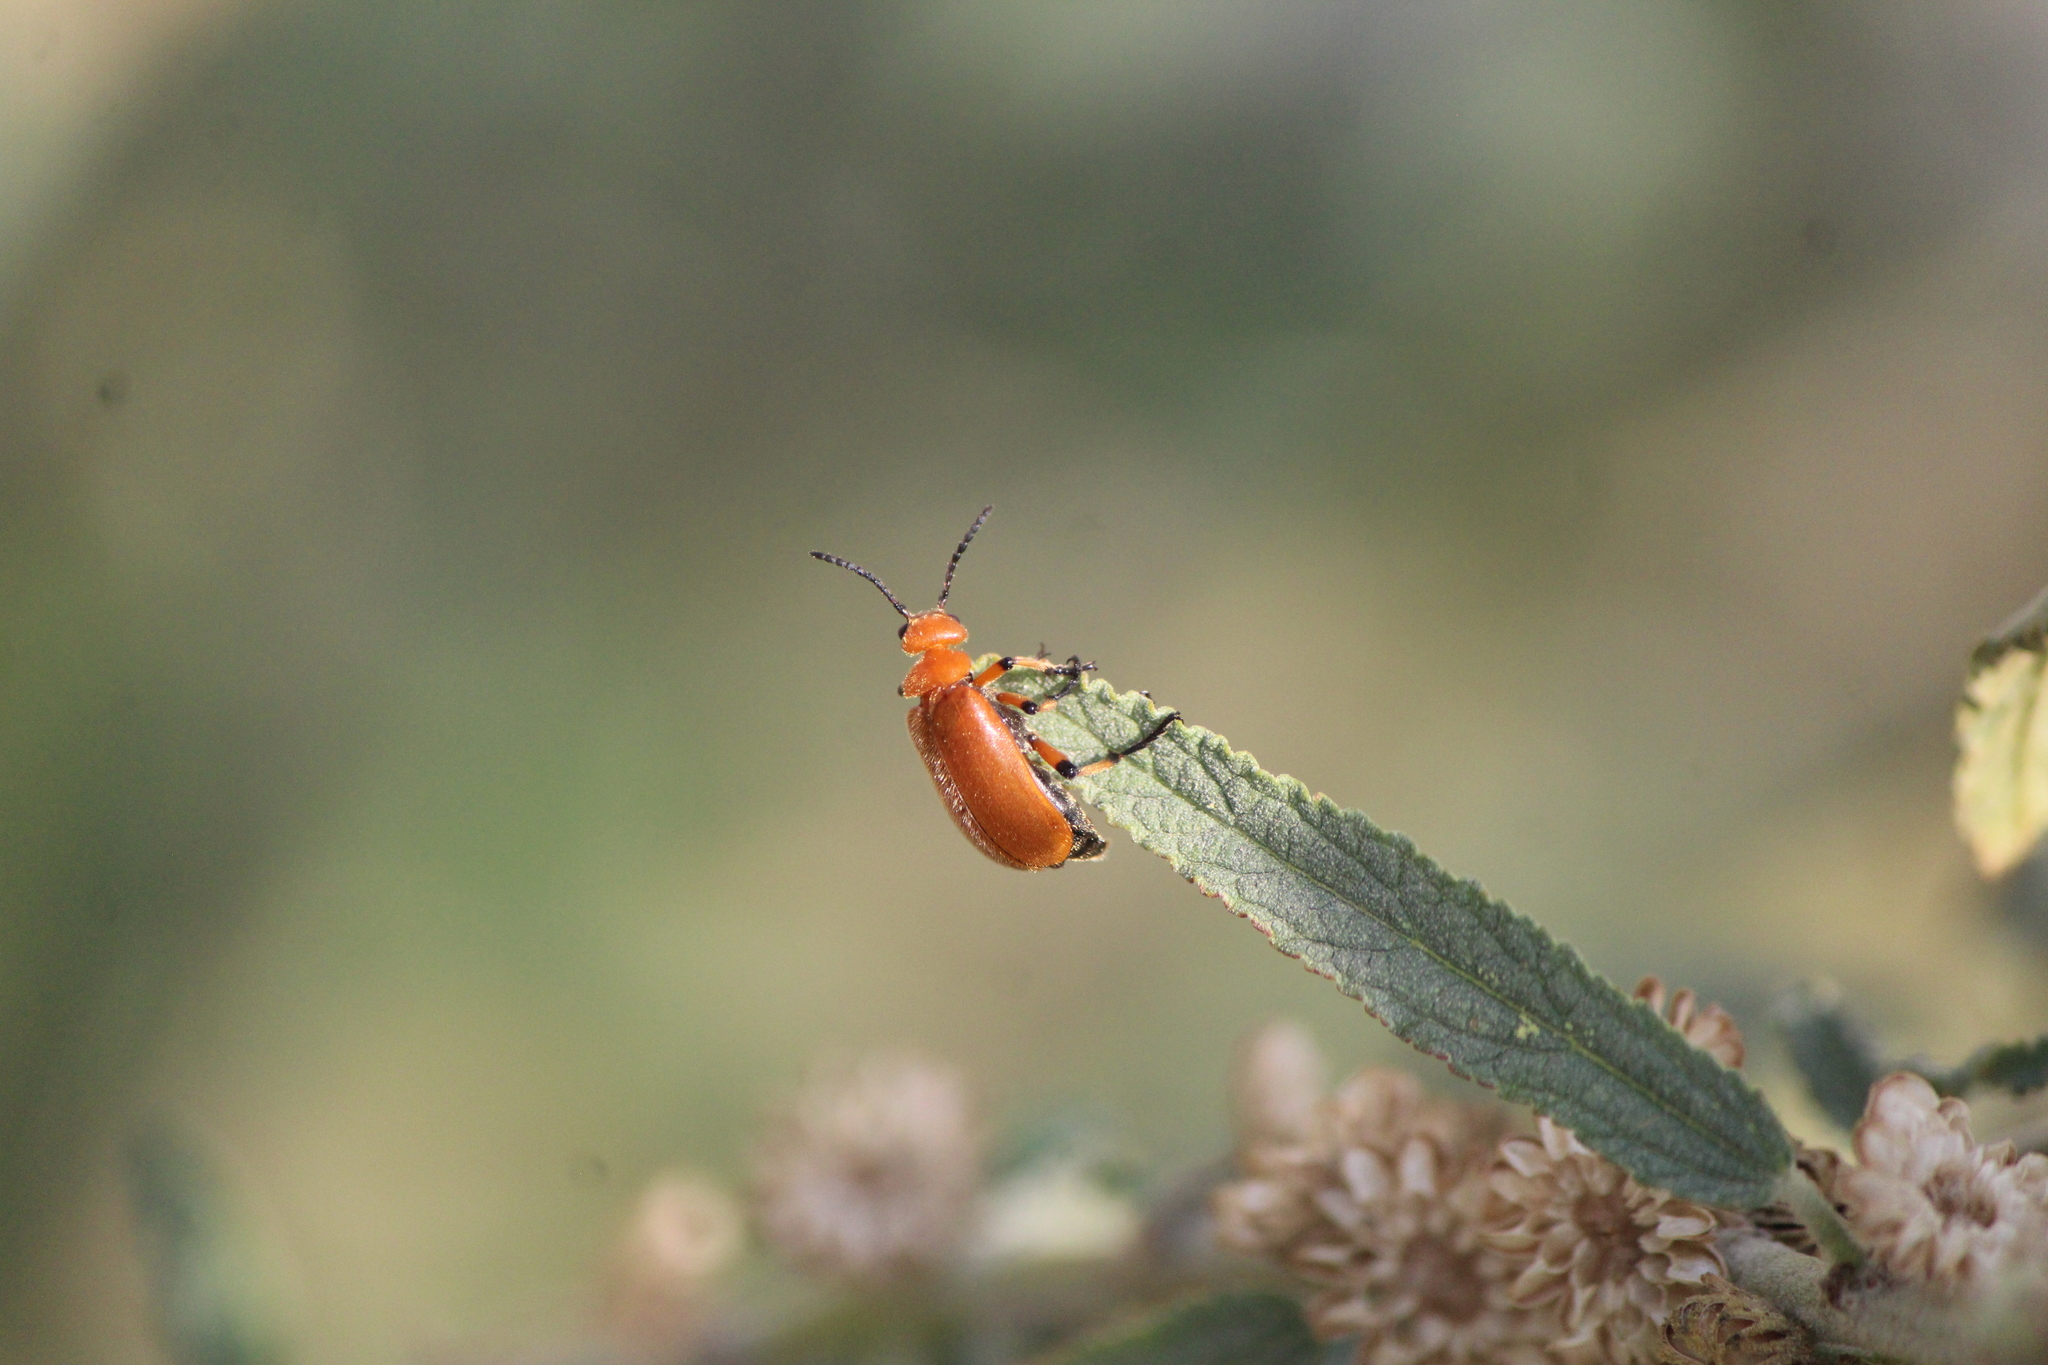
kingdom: Animalia
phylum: Arthropoda
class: Insecta
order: Coleoptera
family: Meloidae
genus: Tetraonyx
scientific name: Tetraonyx fulva
